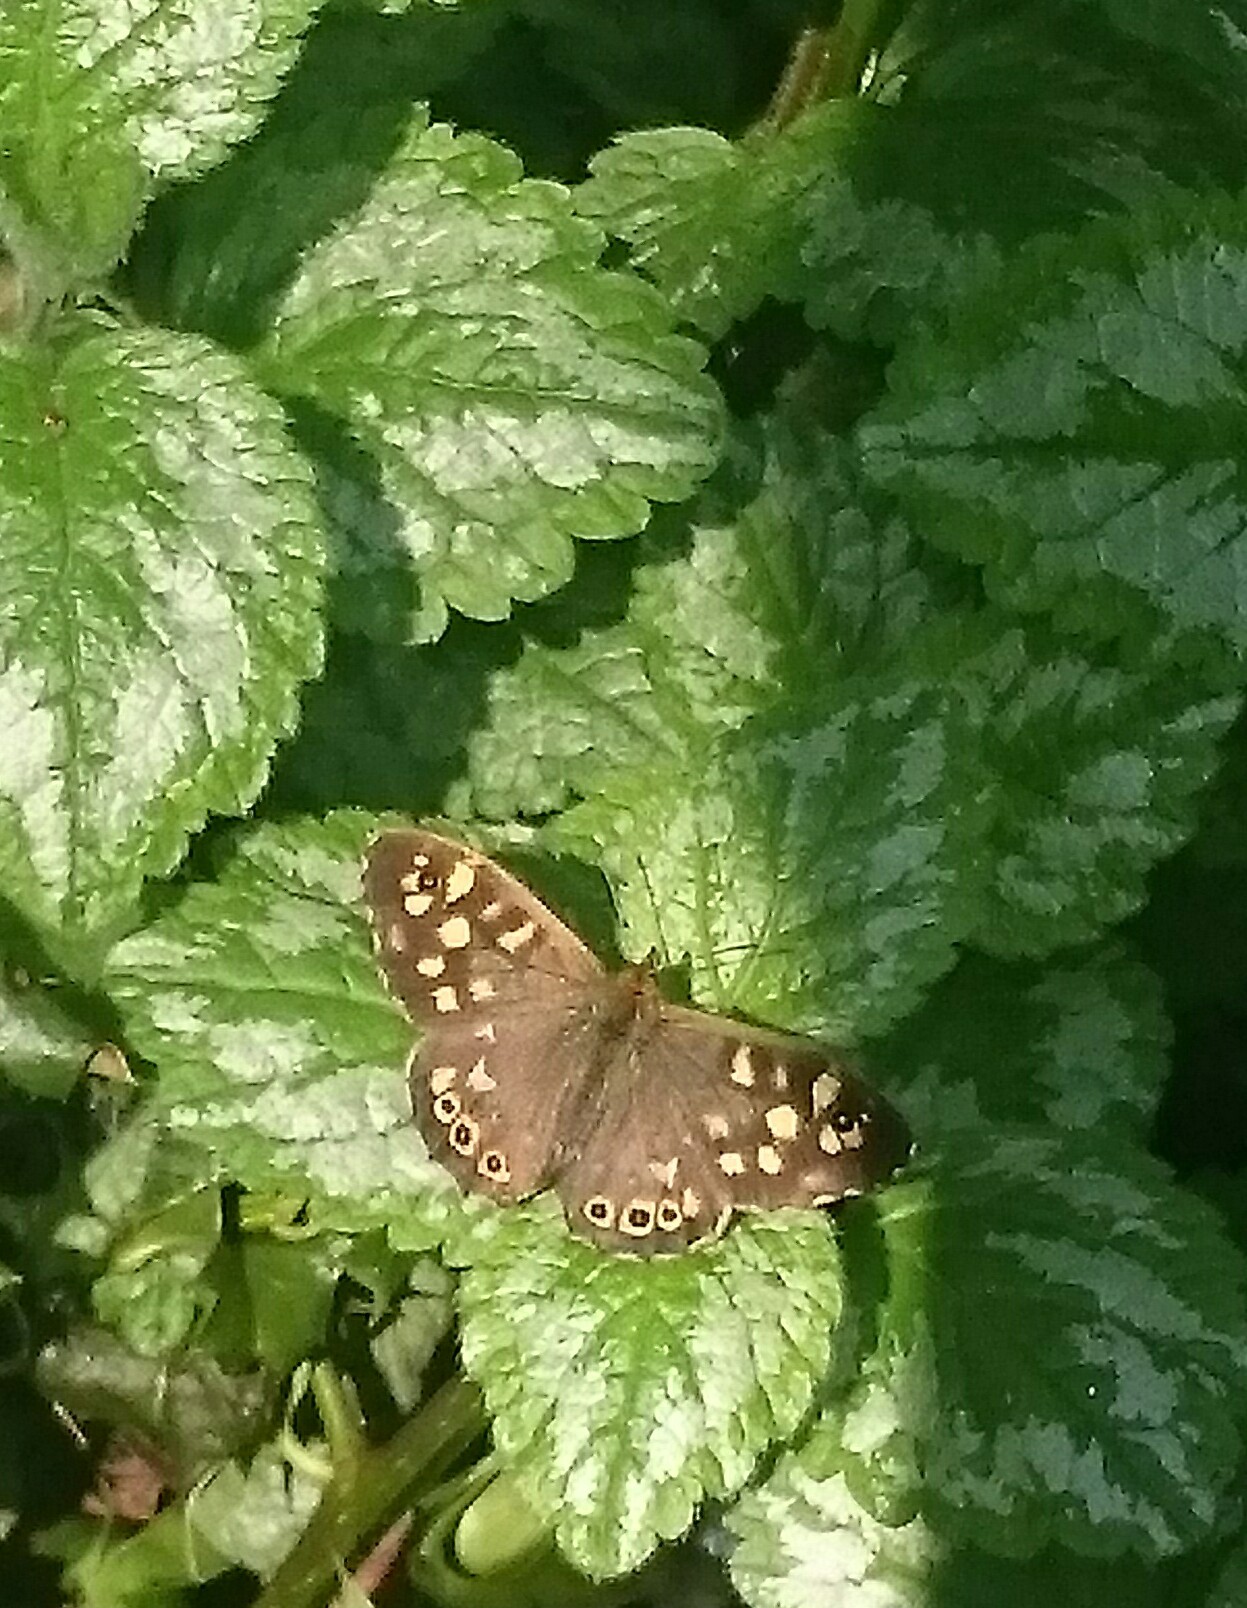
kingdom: Animalia
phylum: Arthropoda
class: Insecta
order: Lepidoptera
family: Nymphalidae
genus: Pararge
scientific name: Pararge aegeria
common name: Speckled wood
